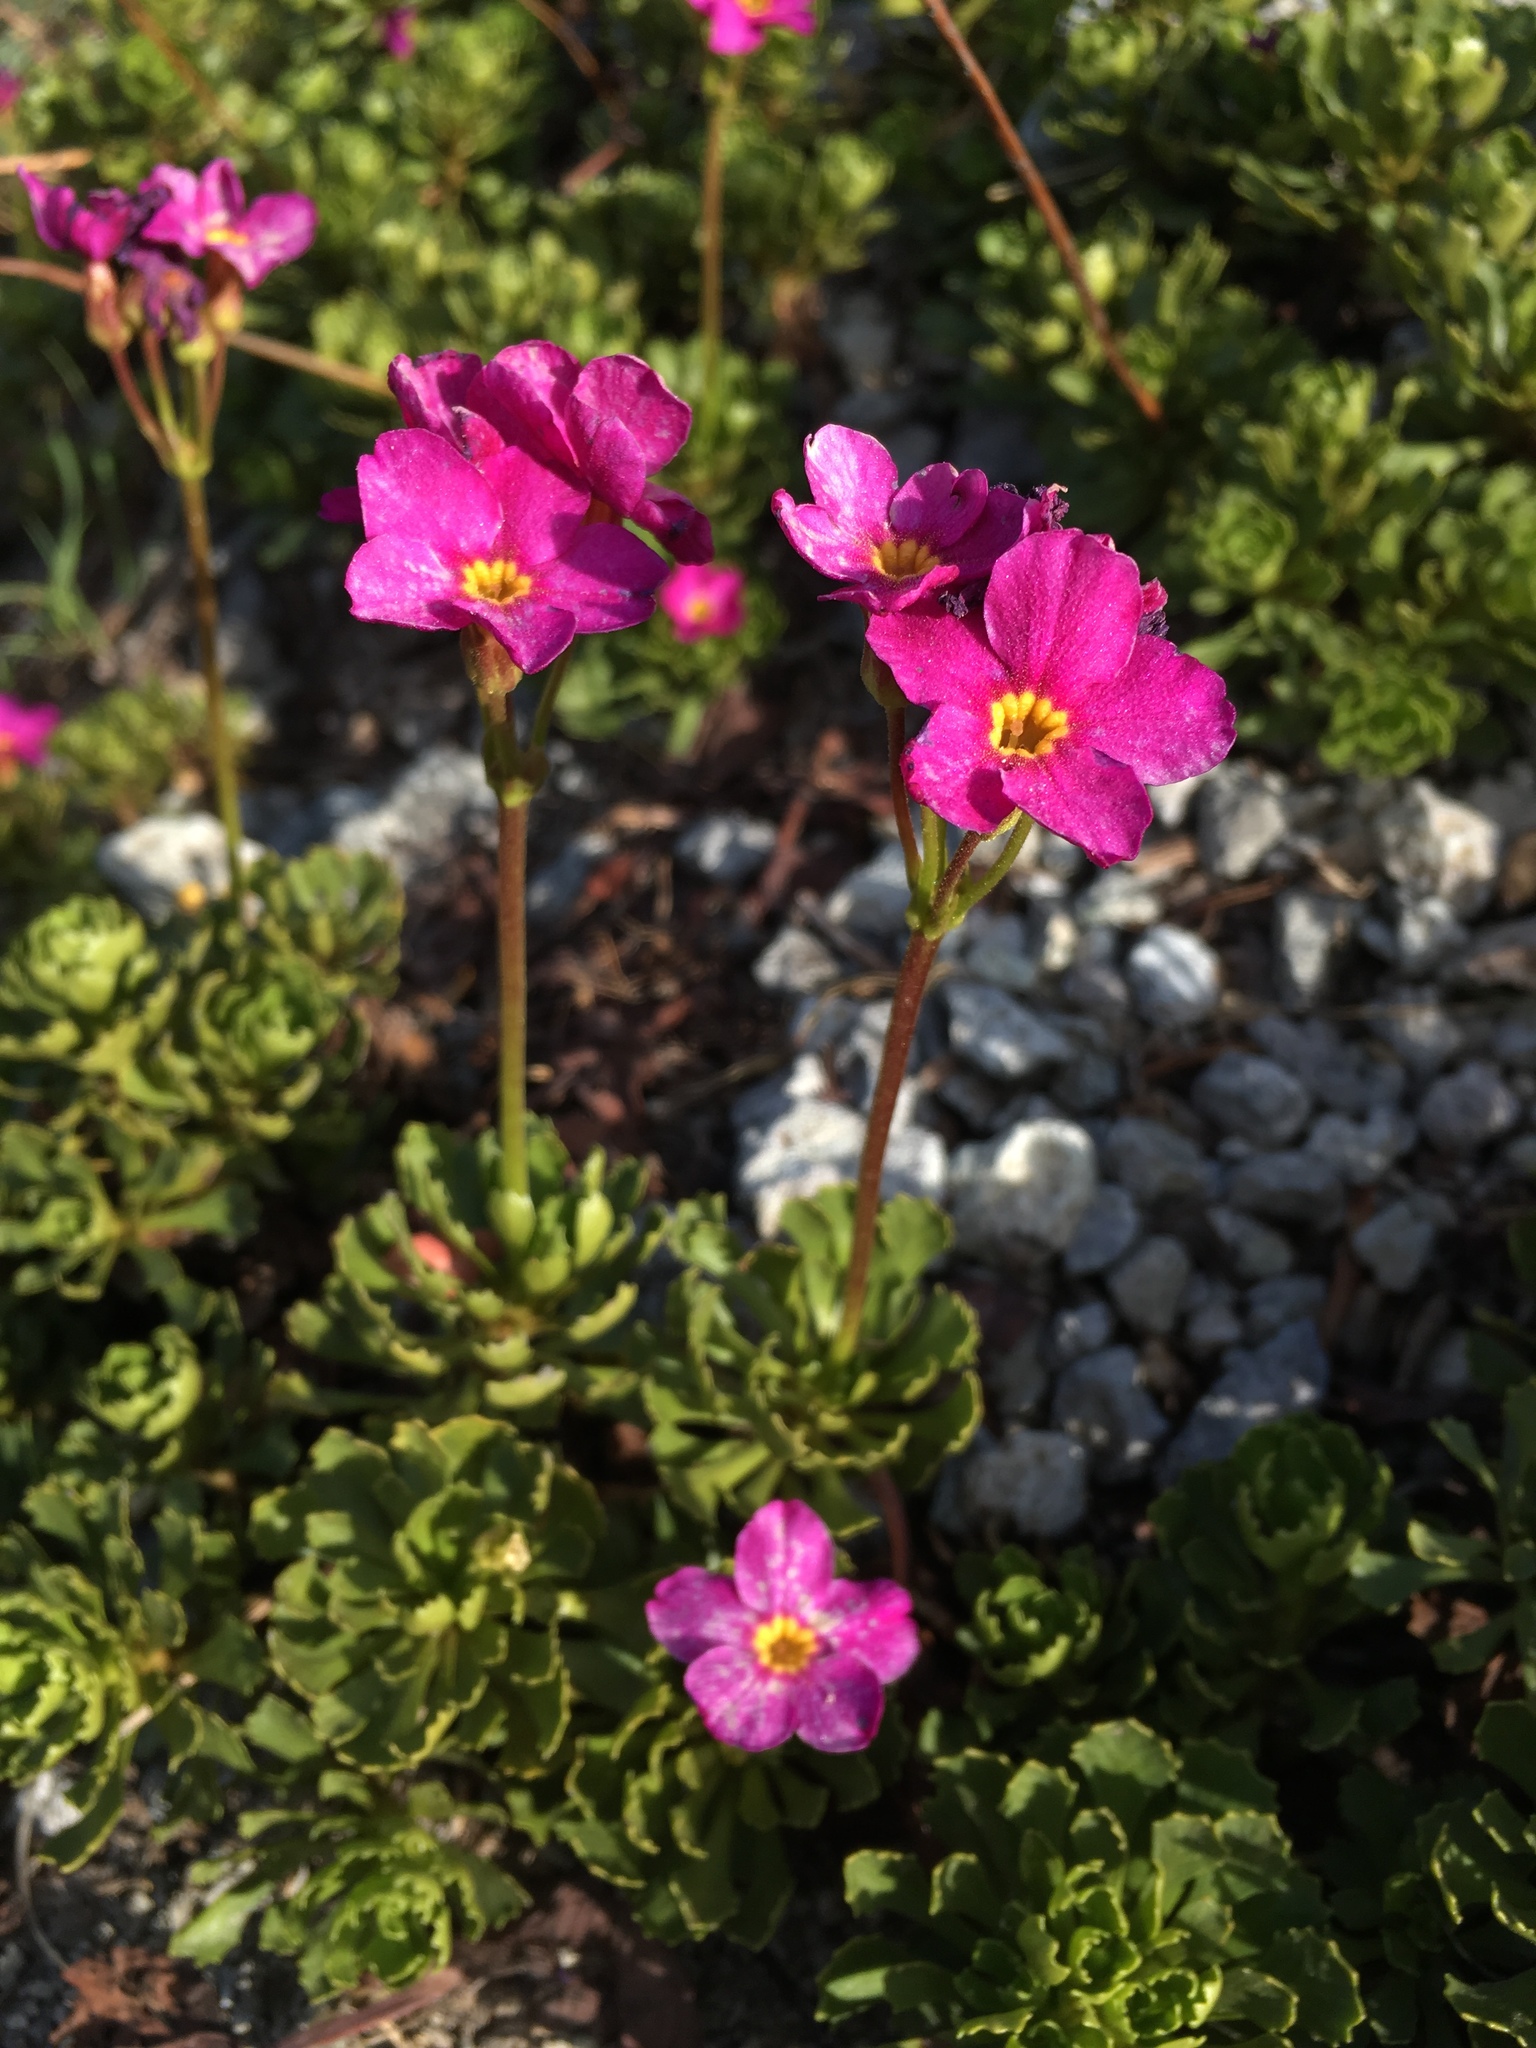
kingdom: Plantae
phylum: Tracheophyta
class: Magnoliopsida
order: Ericales
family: Primulaceae
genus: Primula
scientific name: Primula suffrutescens
